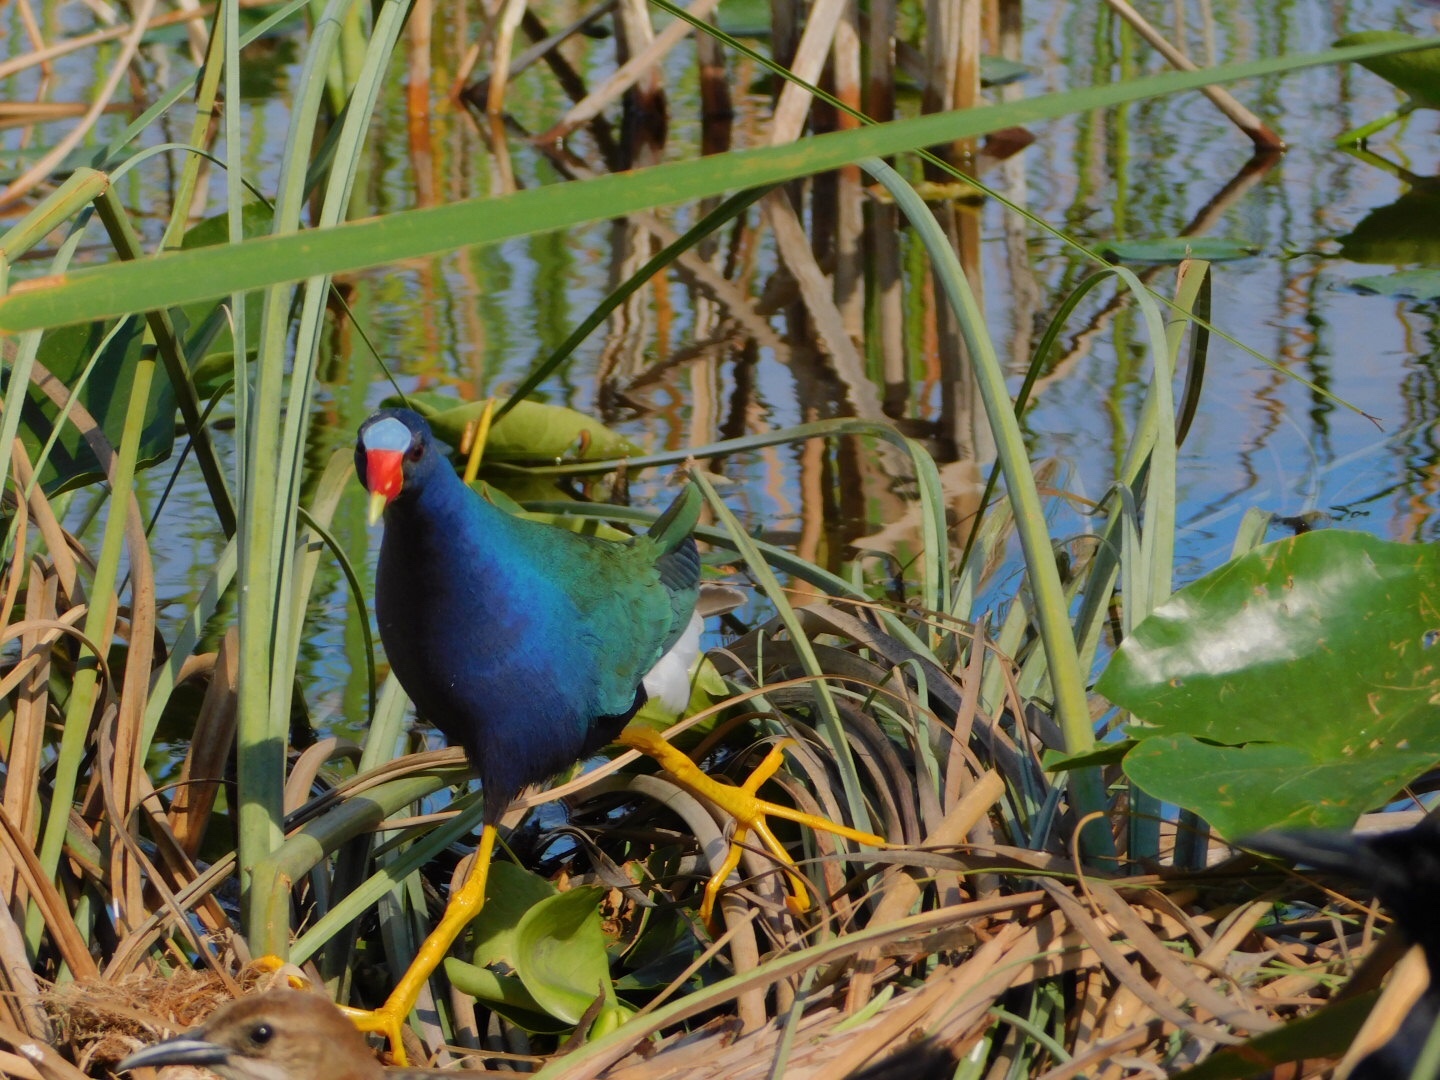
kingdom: Animalia
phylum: Chordata
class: Aves
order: Gruiformes
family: Rallidae
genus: Porphyrio
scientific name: Porphyrio martinica
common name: Purple gallinule
